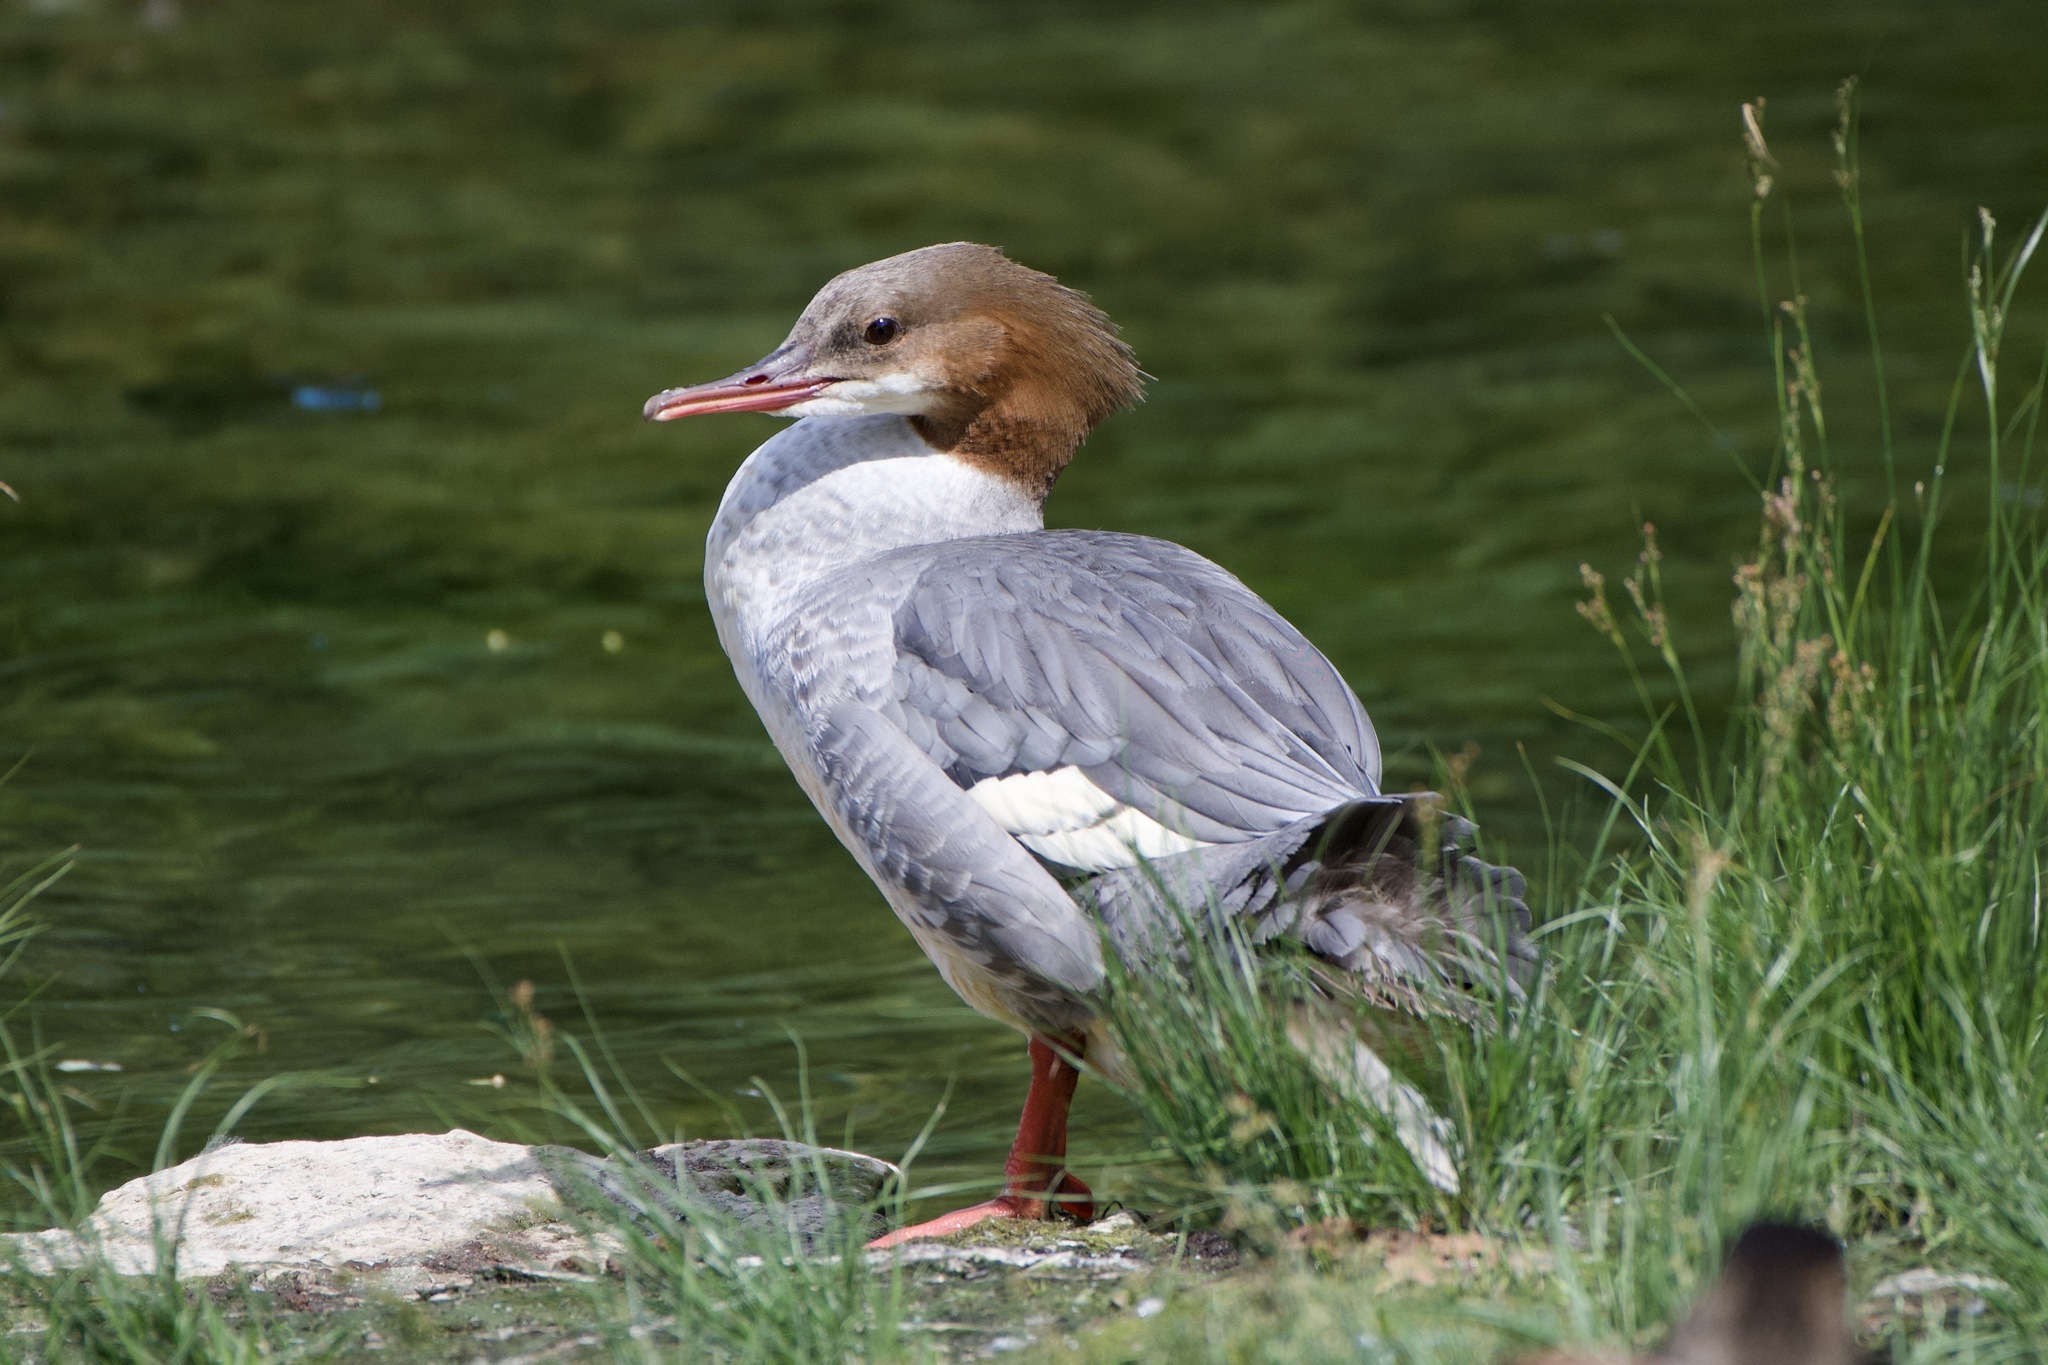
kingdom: Animalia
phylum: Chordata
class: Aves
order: Anseriformes
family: Anatidae
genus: Mergus
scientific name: Mergus merganser
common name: Common merganser
